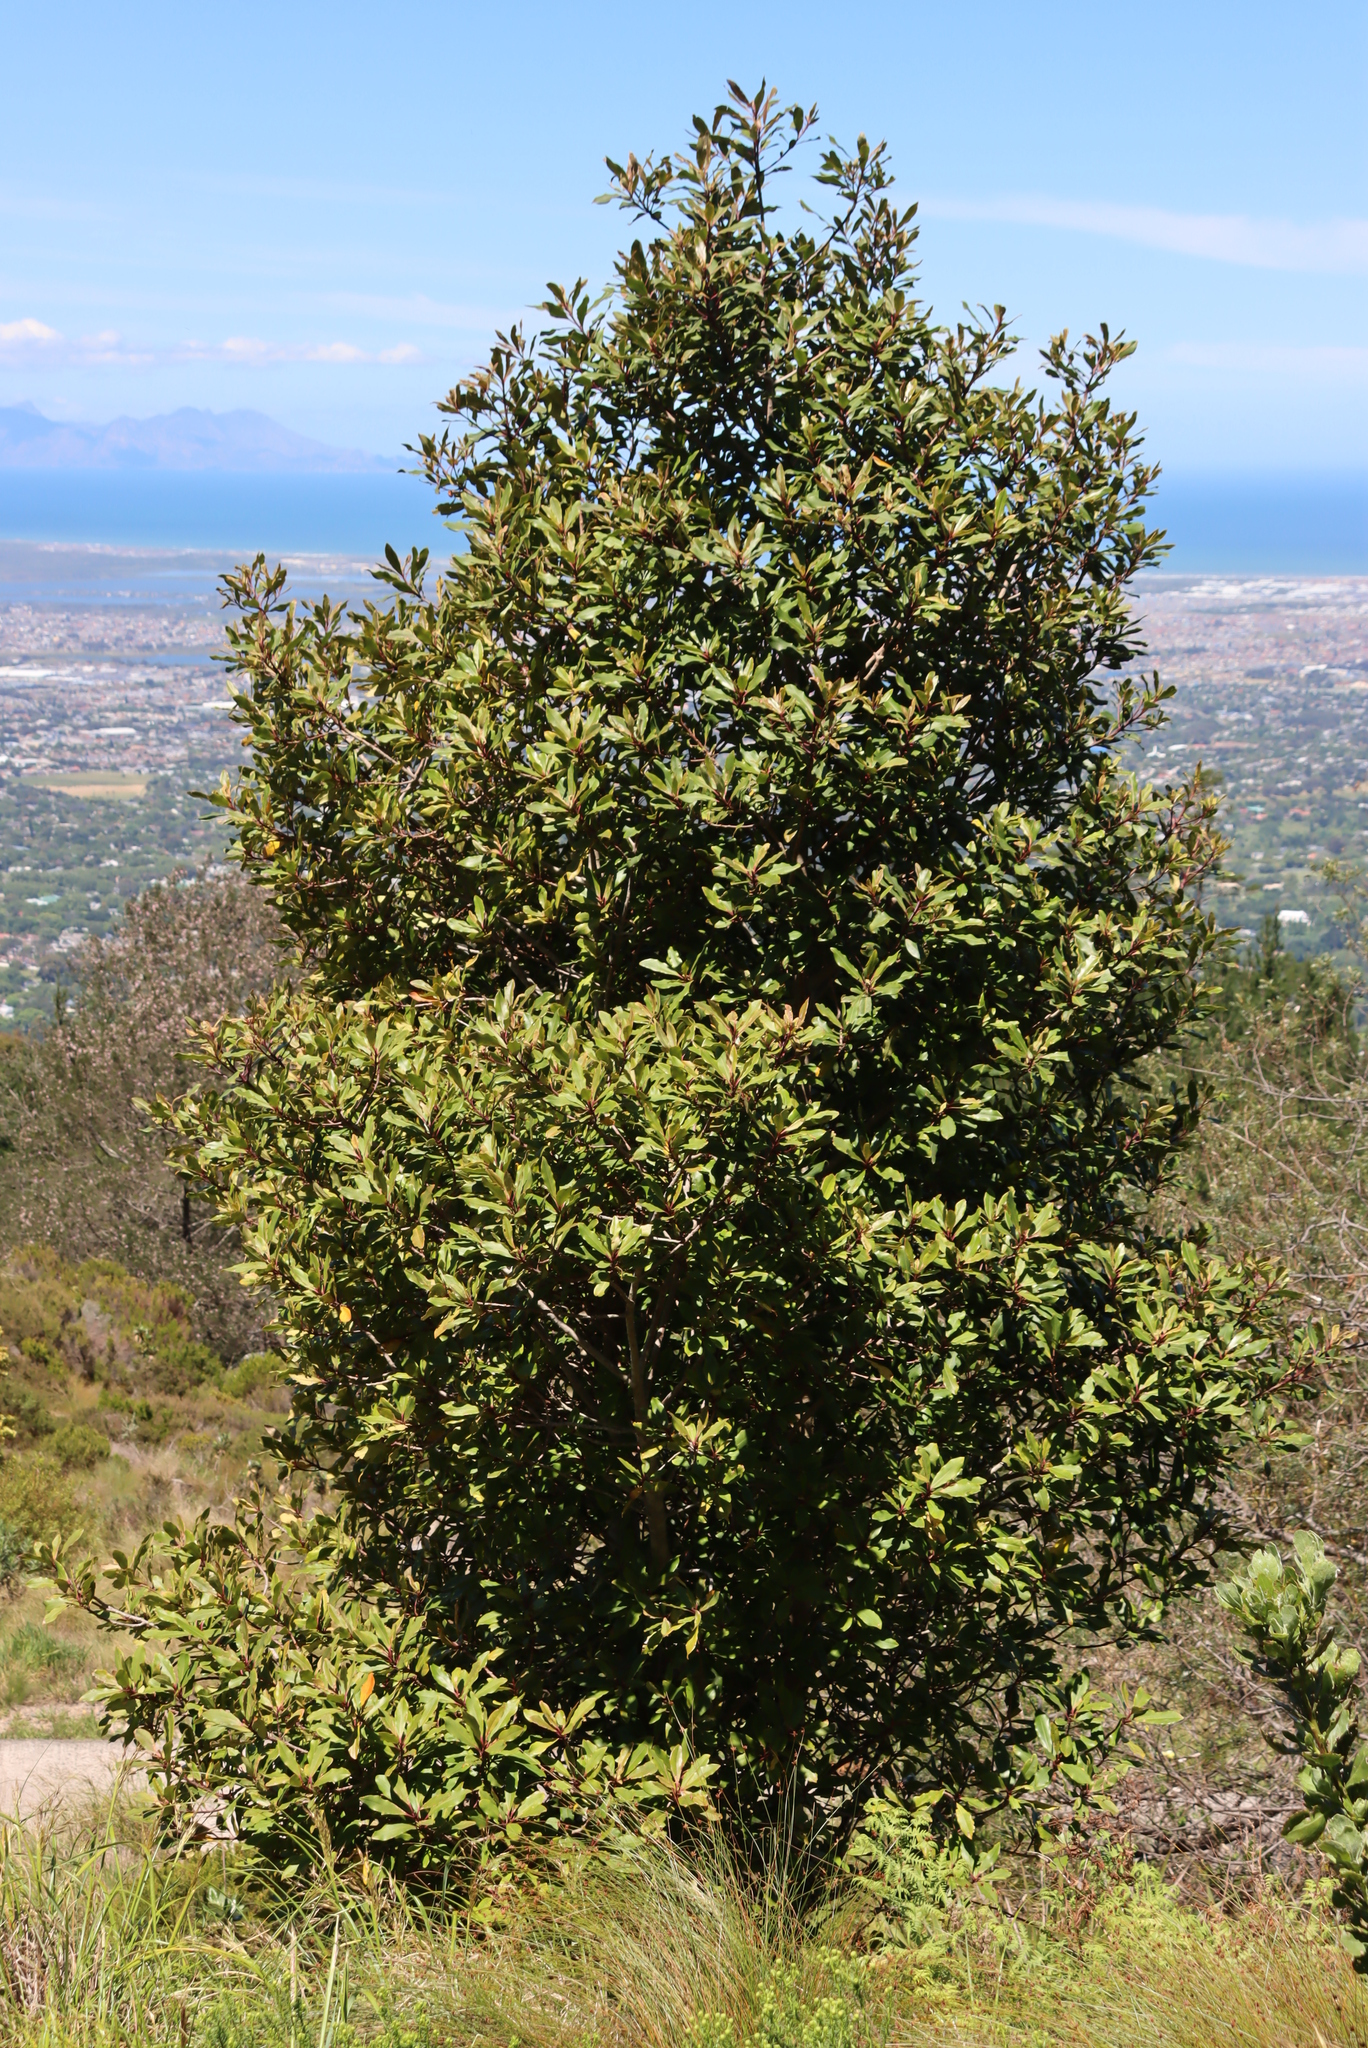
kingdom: Plantae
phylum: Tracheophyta
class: Magnoliopsida
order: Ericales
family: Primulaceae
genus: Myrsine
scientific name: Myrsine melanophloeos
